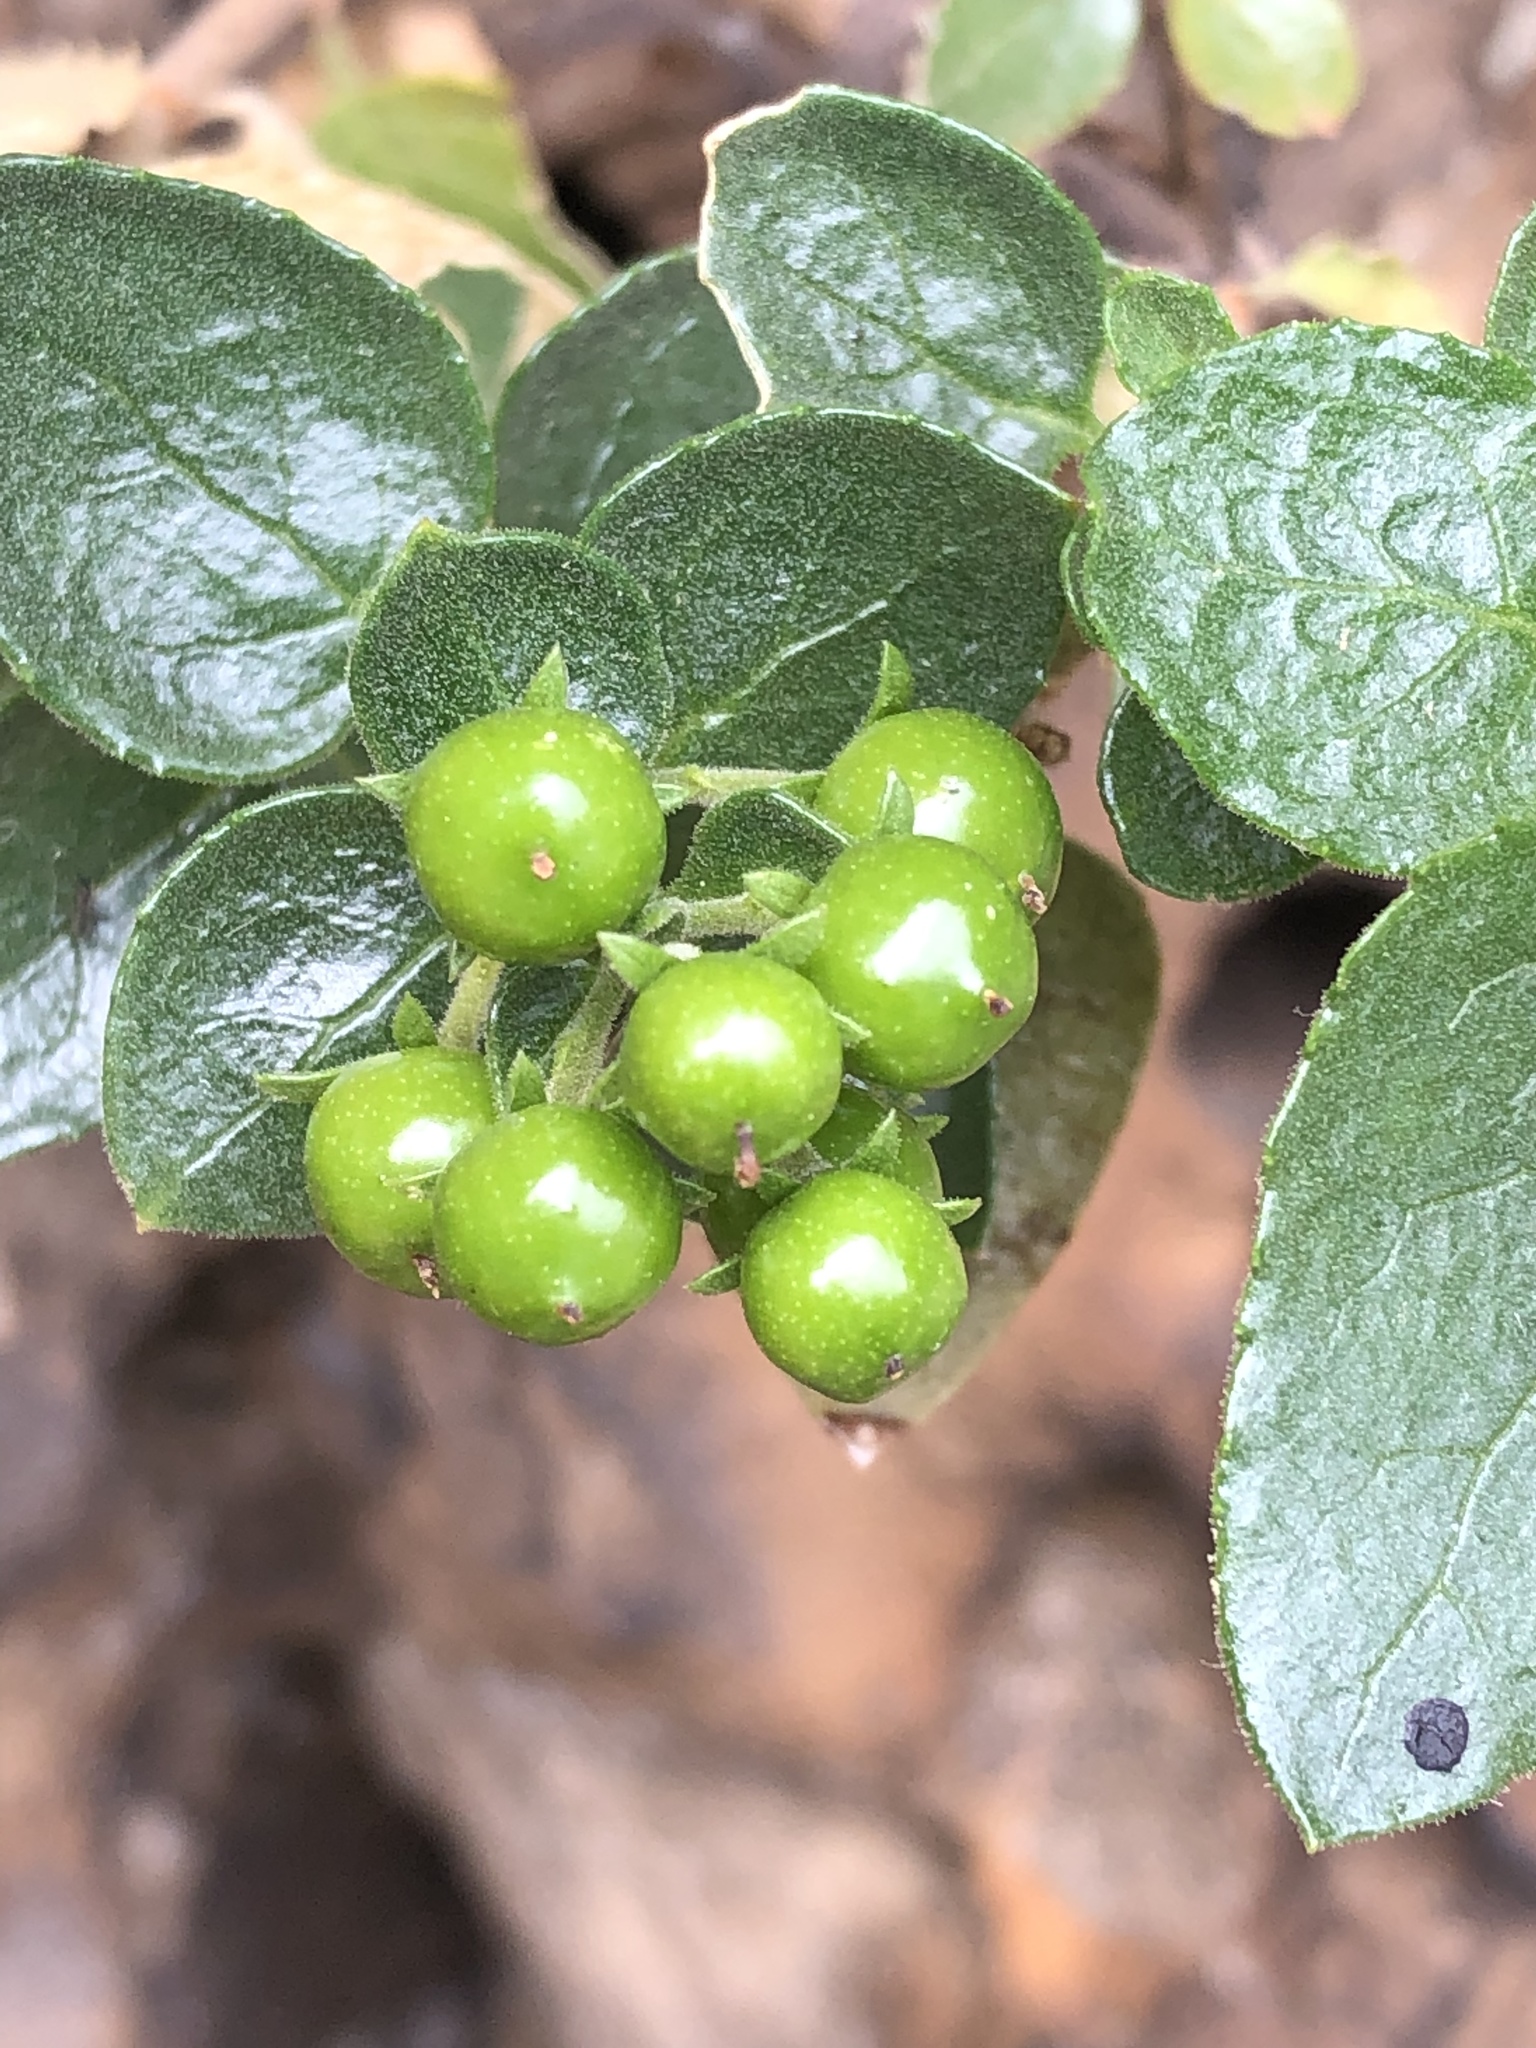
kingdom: Plantae
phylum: Tracheophyta
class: Magnoliopsida
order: Lamiales
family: Scrophulariaceae
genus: Oftia
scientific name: Oftia africana
